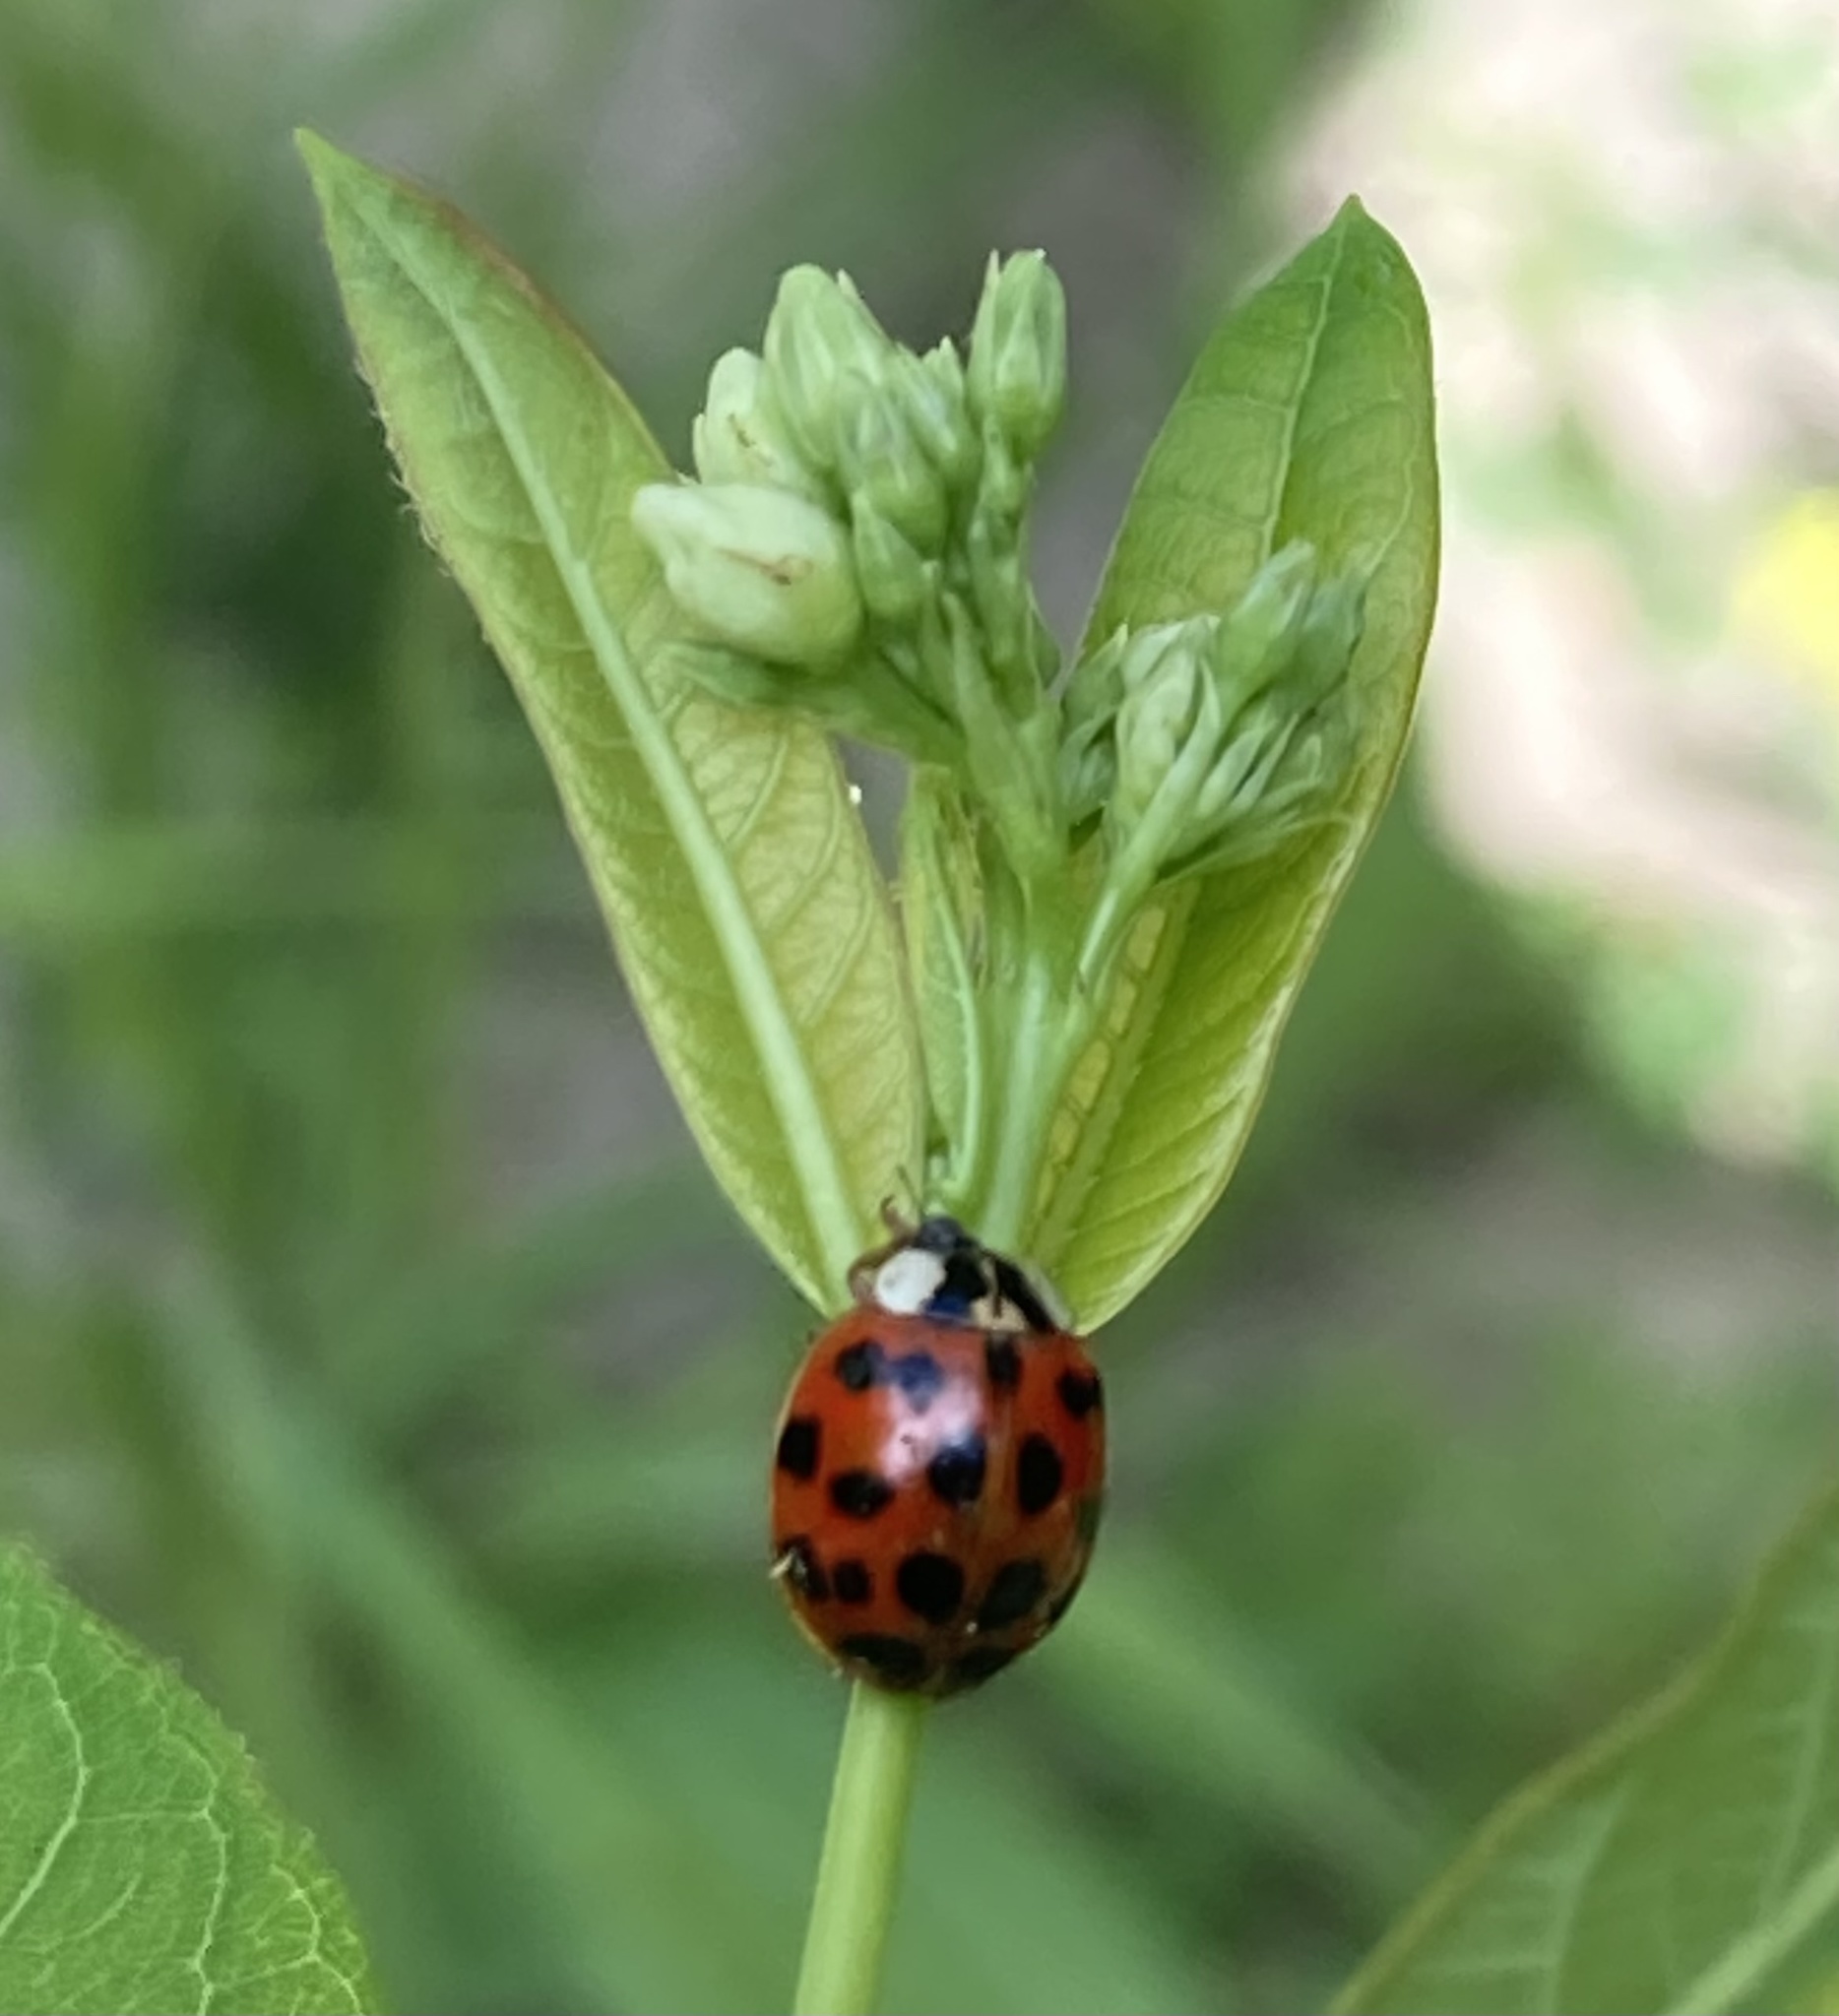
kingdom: Animalia
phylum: Arthropoda
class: Insecta
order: Coleoptera
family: Coccinellidae
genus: Harmonia
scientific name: Harmonia axyridis
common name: Harlequin ladybird
